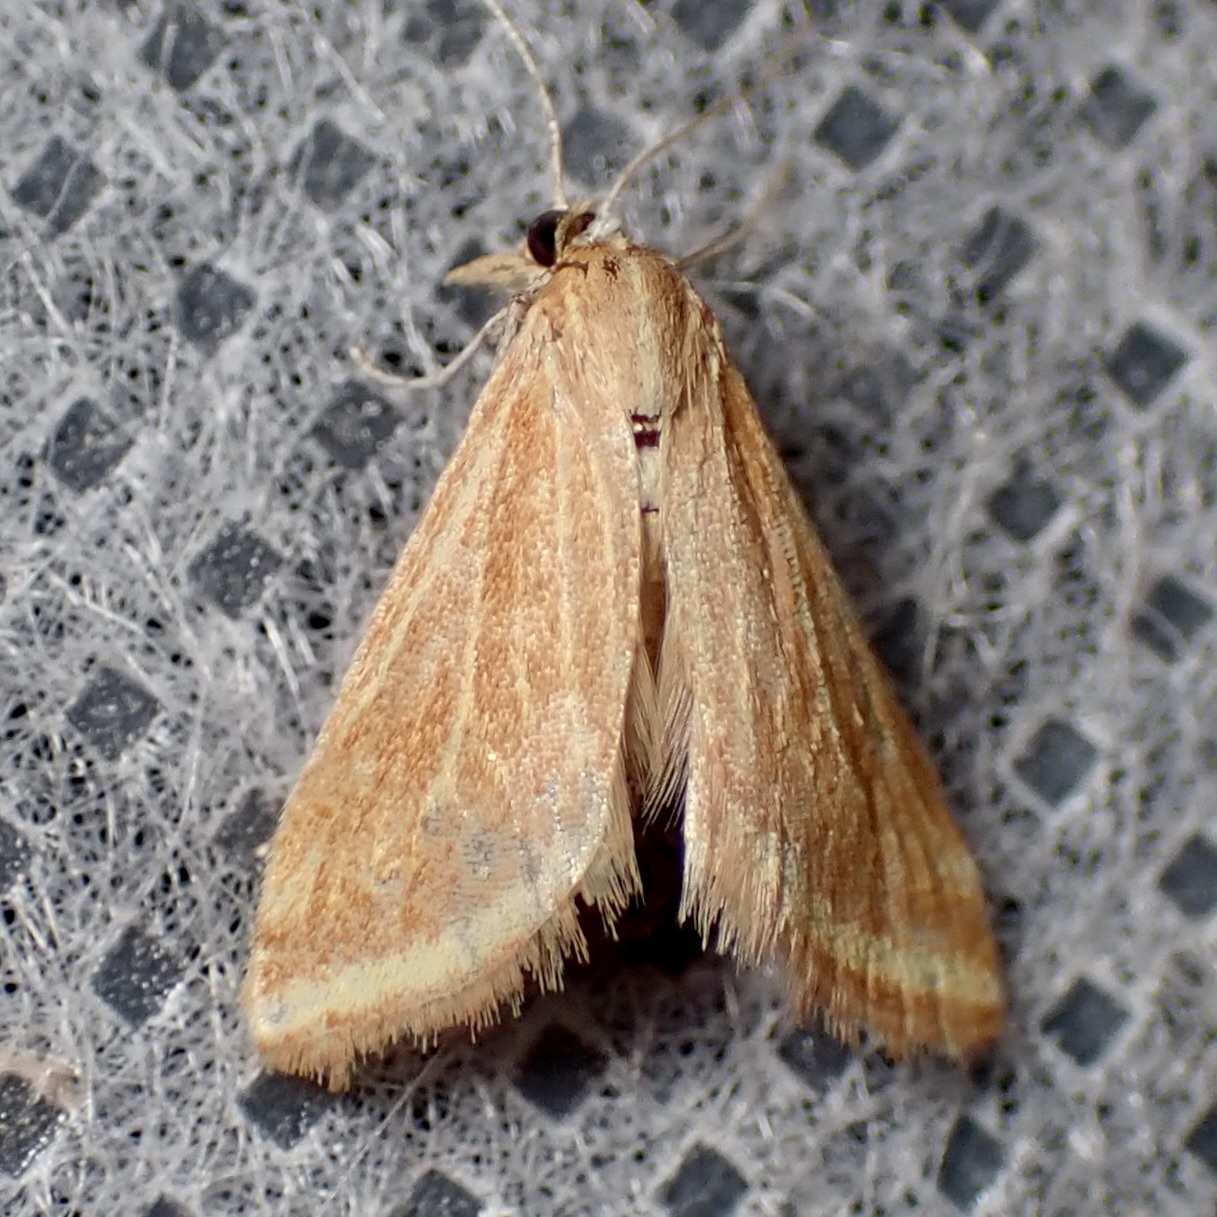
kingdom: Animalia
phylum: Arthropoda
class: Insecta
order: Lepidoptera
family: Crambidae
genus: Microtheoris
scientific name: Microtheoris ophionalis
